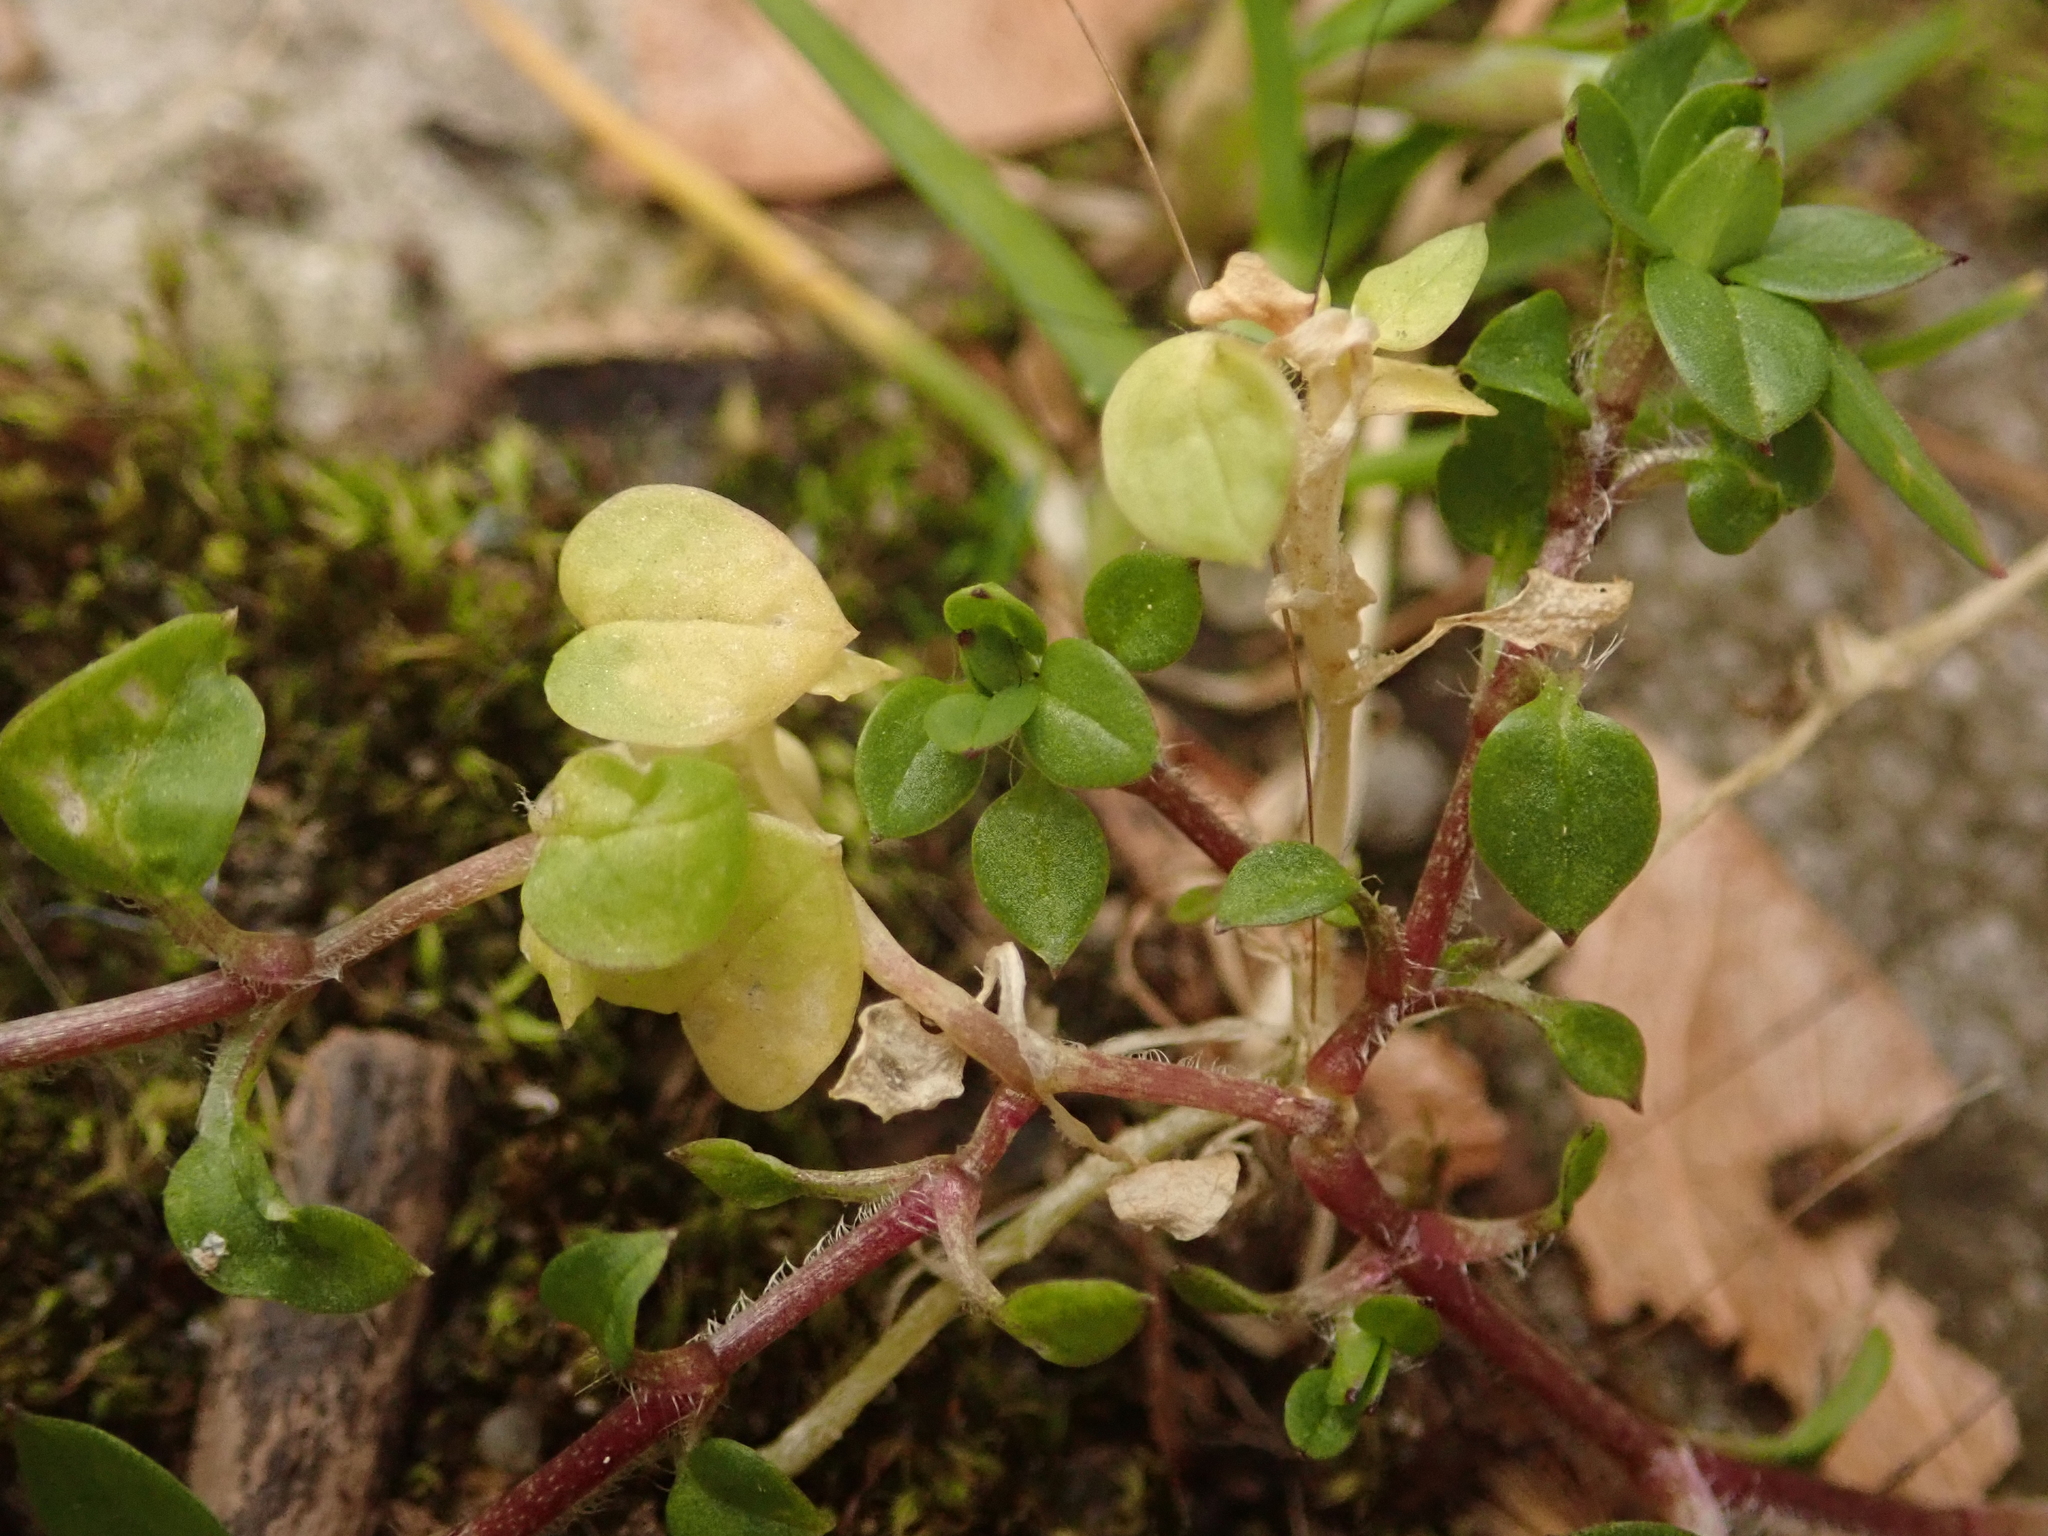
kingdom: Plantae
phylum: Tracheophyta
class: Magnoliopsida
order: Caryophyllales
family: Caryophyllaceae
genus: Stellaria
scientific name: Stellaria media
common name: Common chickweed
